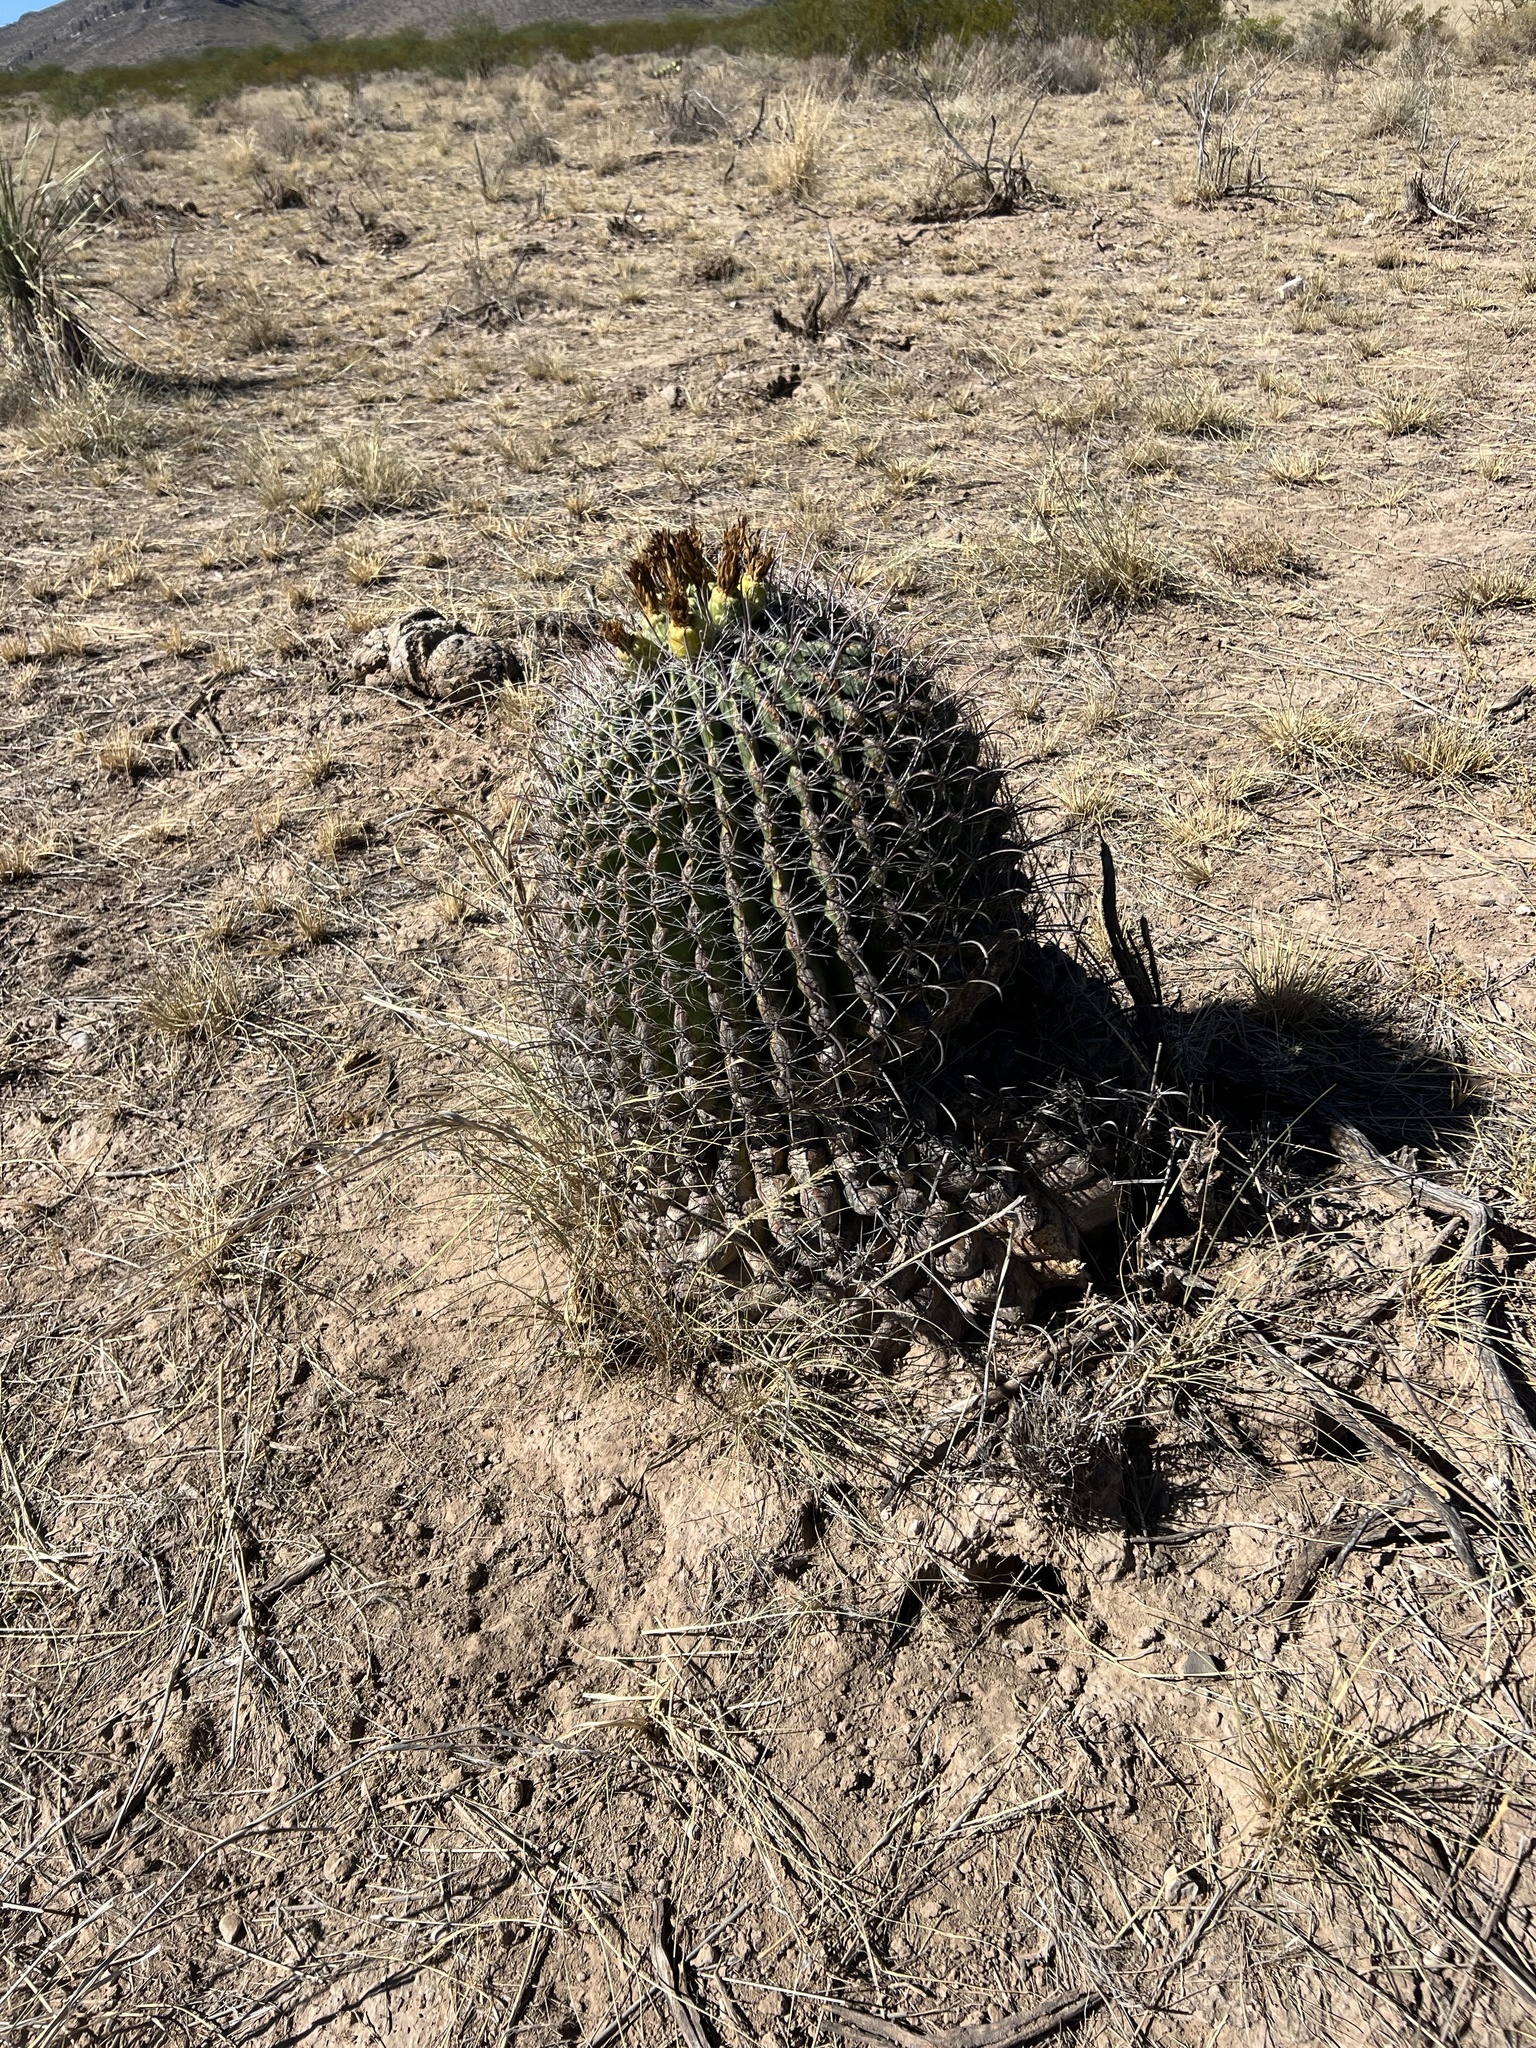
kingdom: Plantae
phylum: Tracheophyta
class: Magnoliopsida
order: Caryophyllales
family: Cactaceae
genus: Ferocactus
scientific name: Ferocactus wislizeni
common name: Candy barrel cactus
